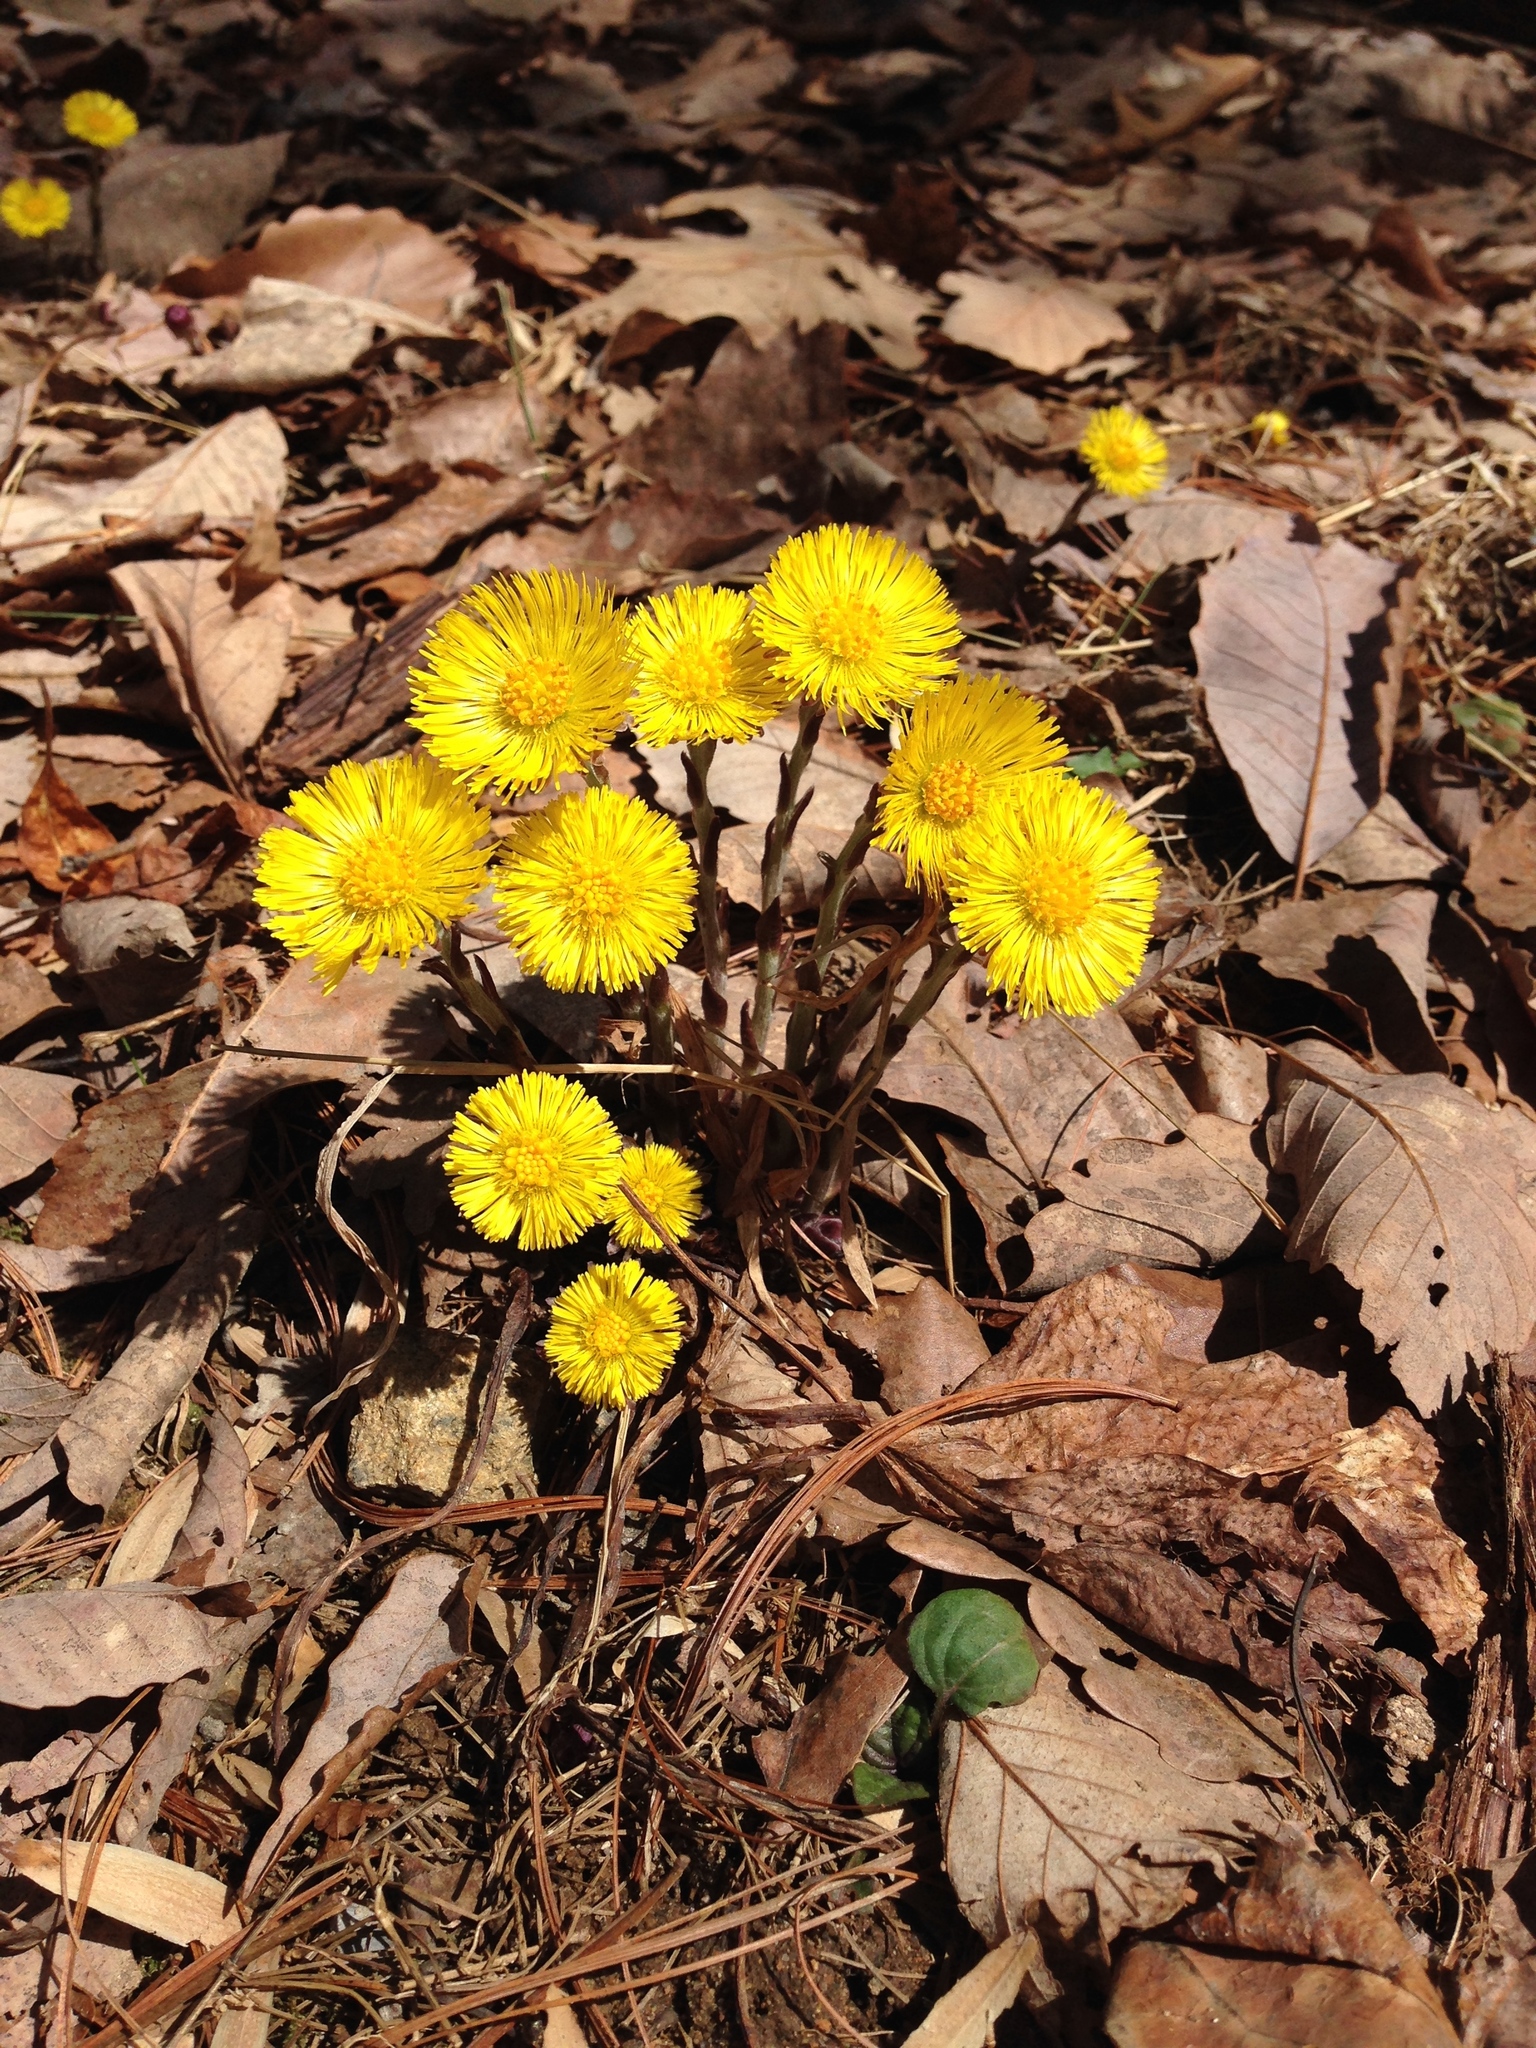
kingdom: Plantae
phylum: Tracheophyta
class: Magnoliopsida
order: Asterales
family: Asteraceae
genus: Tussilago
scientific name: Tussilago farfara
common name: Coltsfoot
